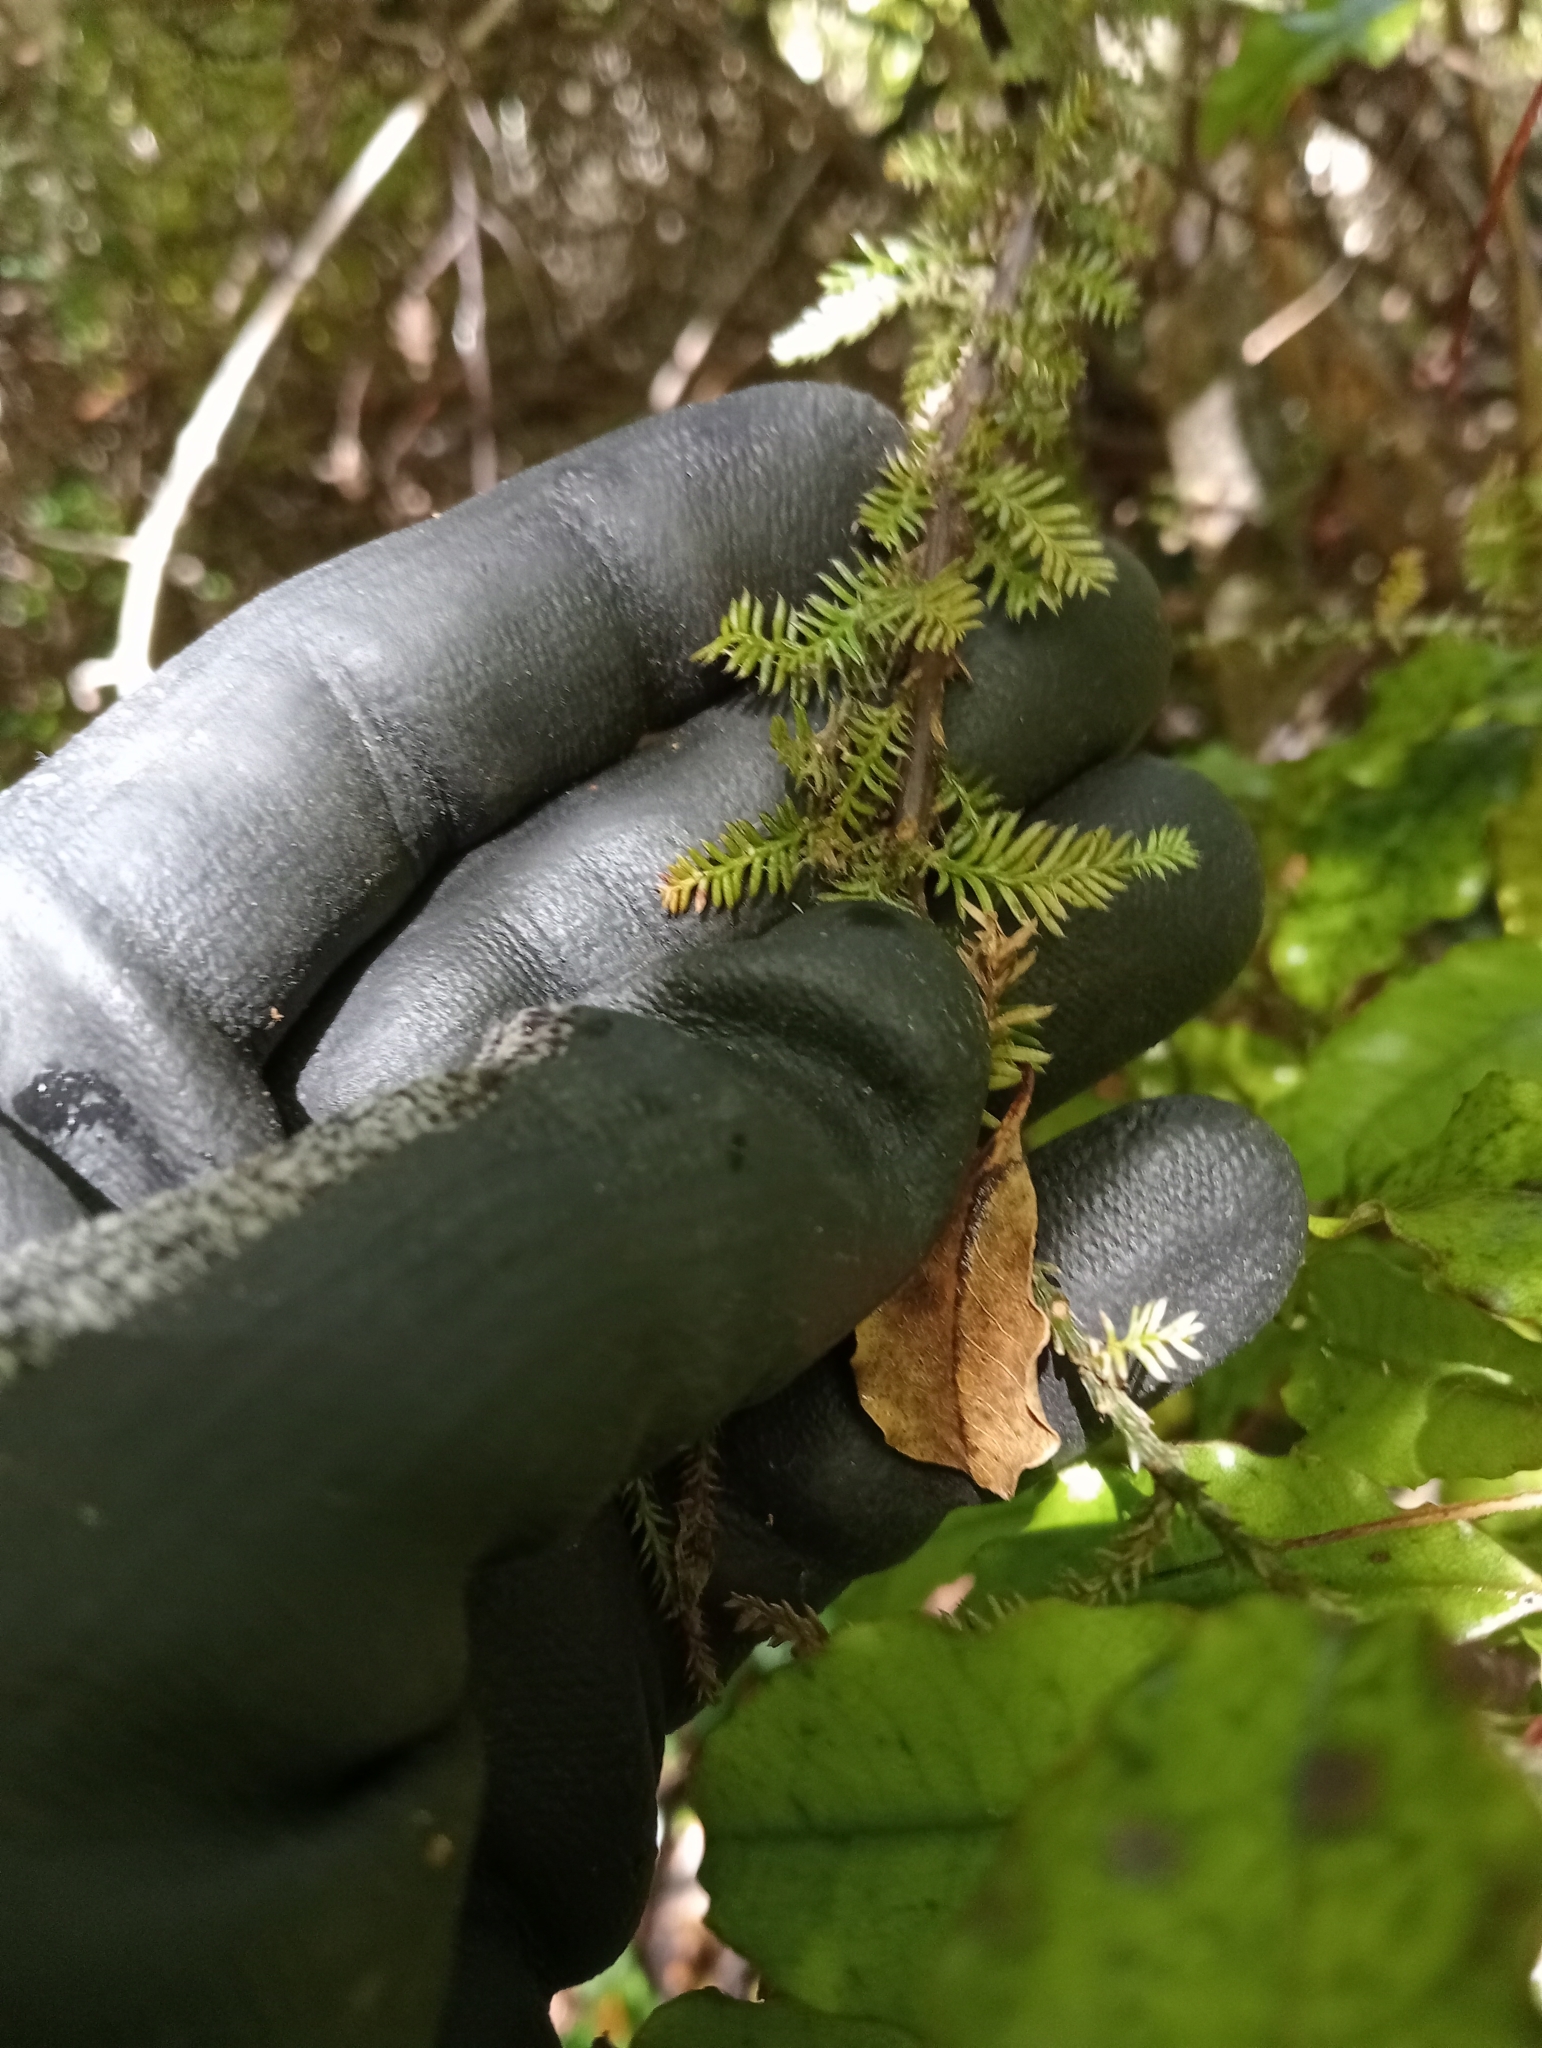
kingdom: Plantae
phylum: Tracheophyta
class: Pinopsida
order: Pinales
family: Podocarpaceae
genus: Dacrycarpus
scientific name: Dacrycarpus dacrydioides
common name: White pine
